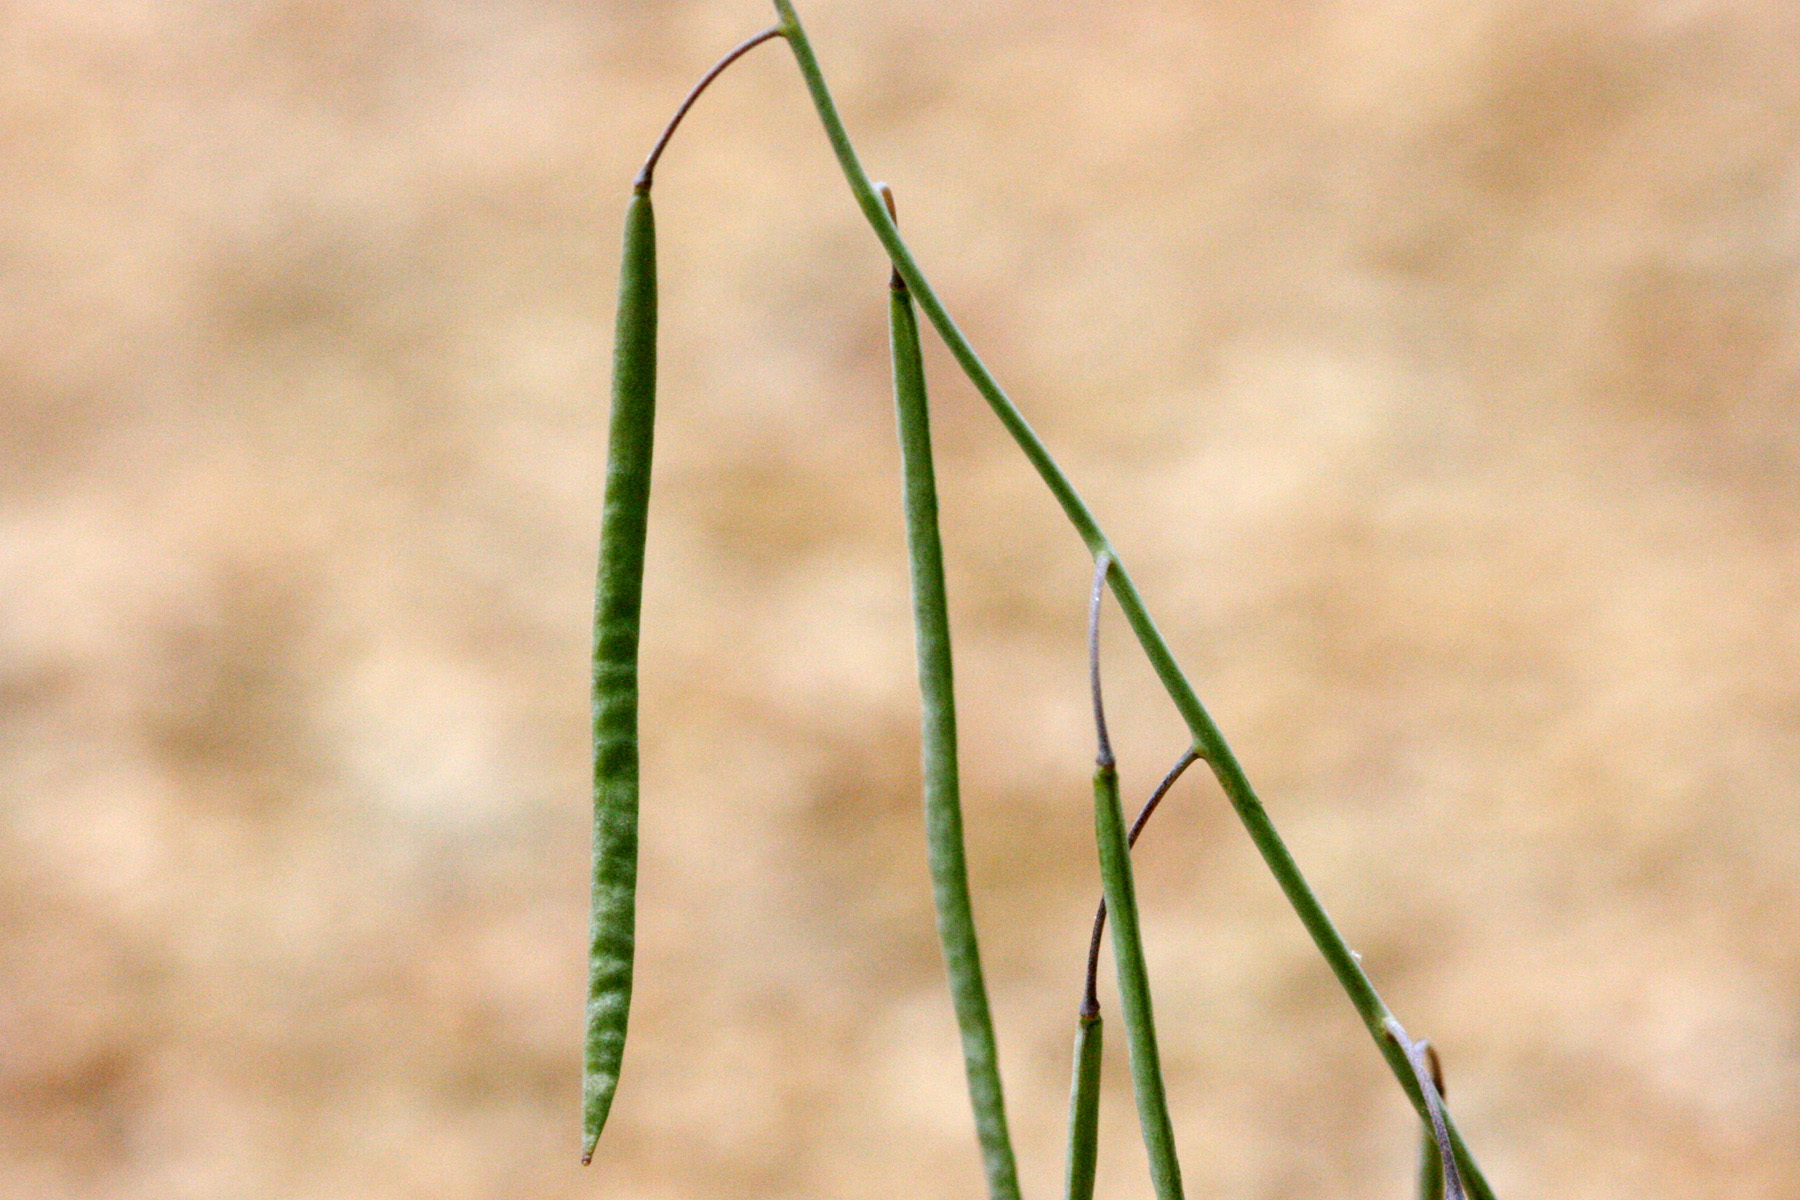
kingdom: Plantae
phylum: Tracheophyta
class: Magnoliopsida
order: Brassicales
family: Brassicaceae
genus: Boechera
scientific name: Boechera spatifolia
